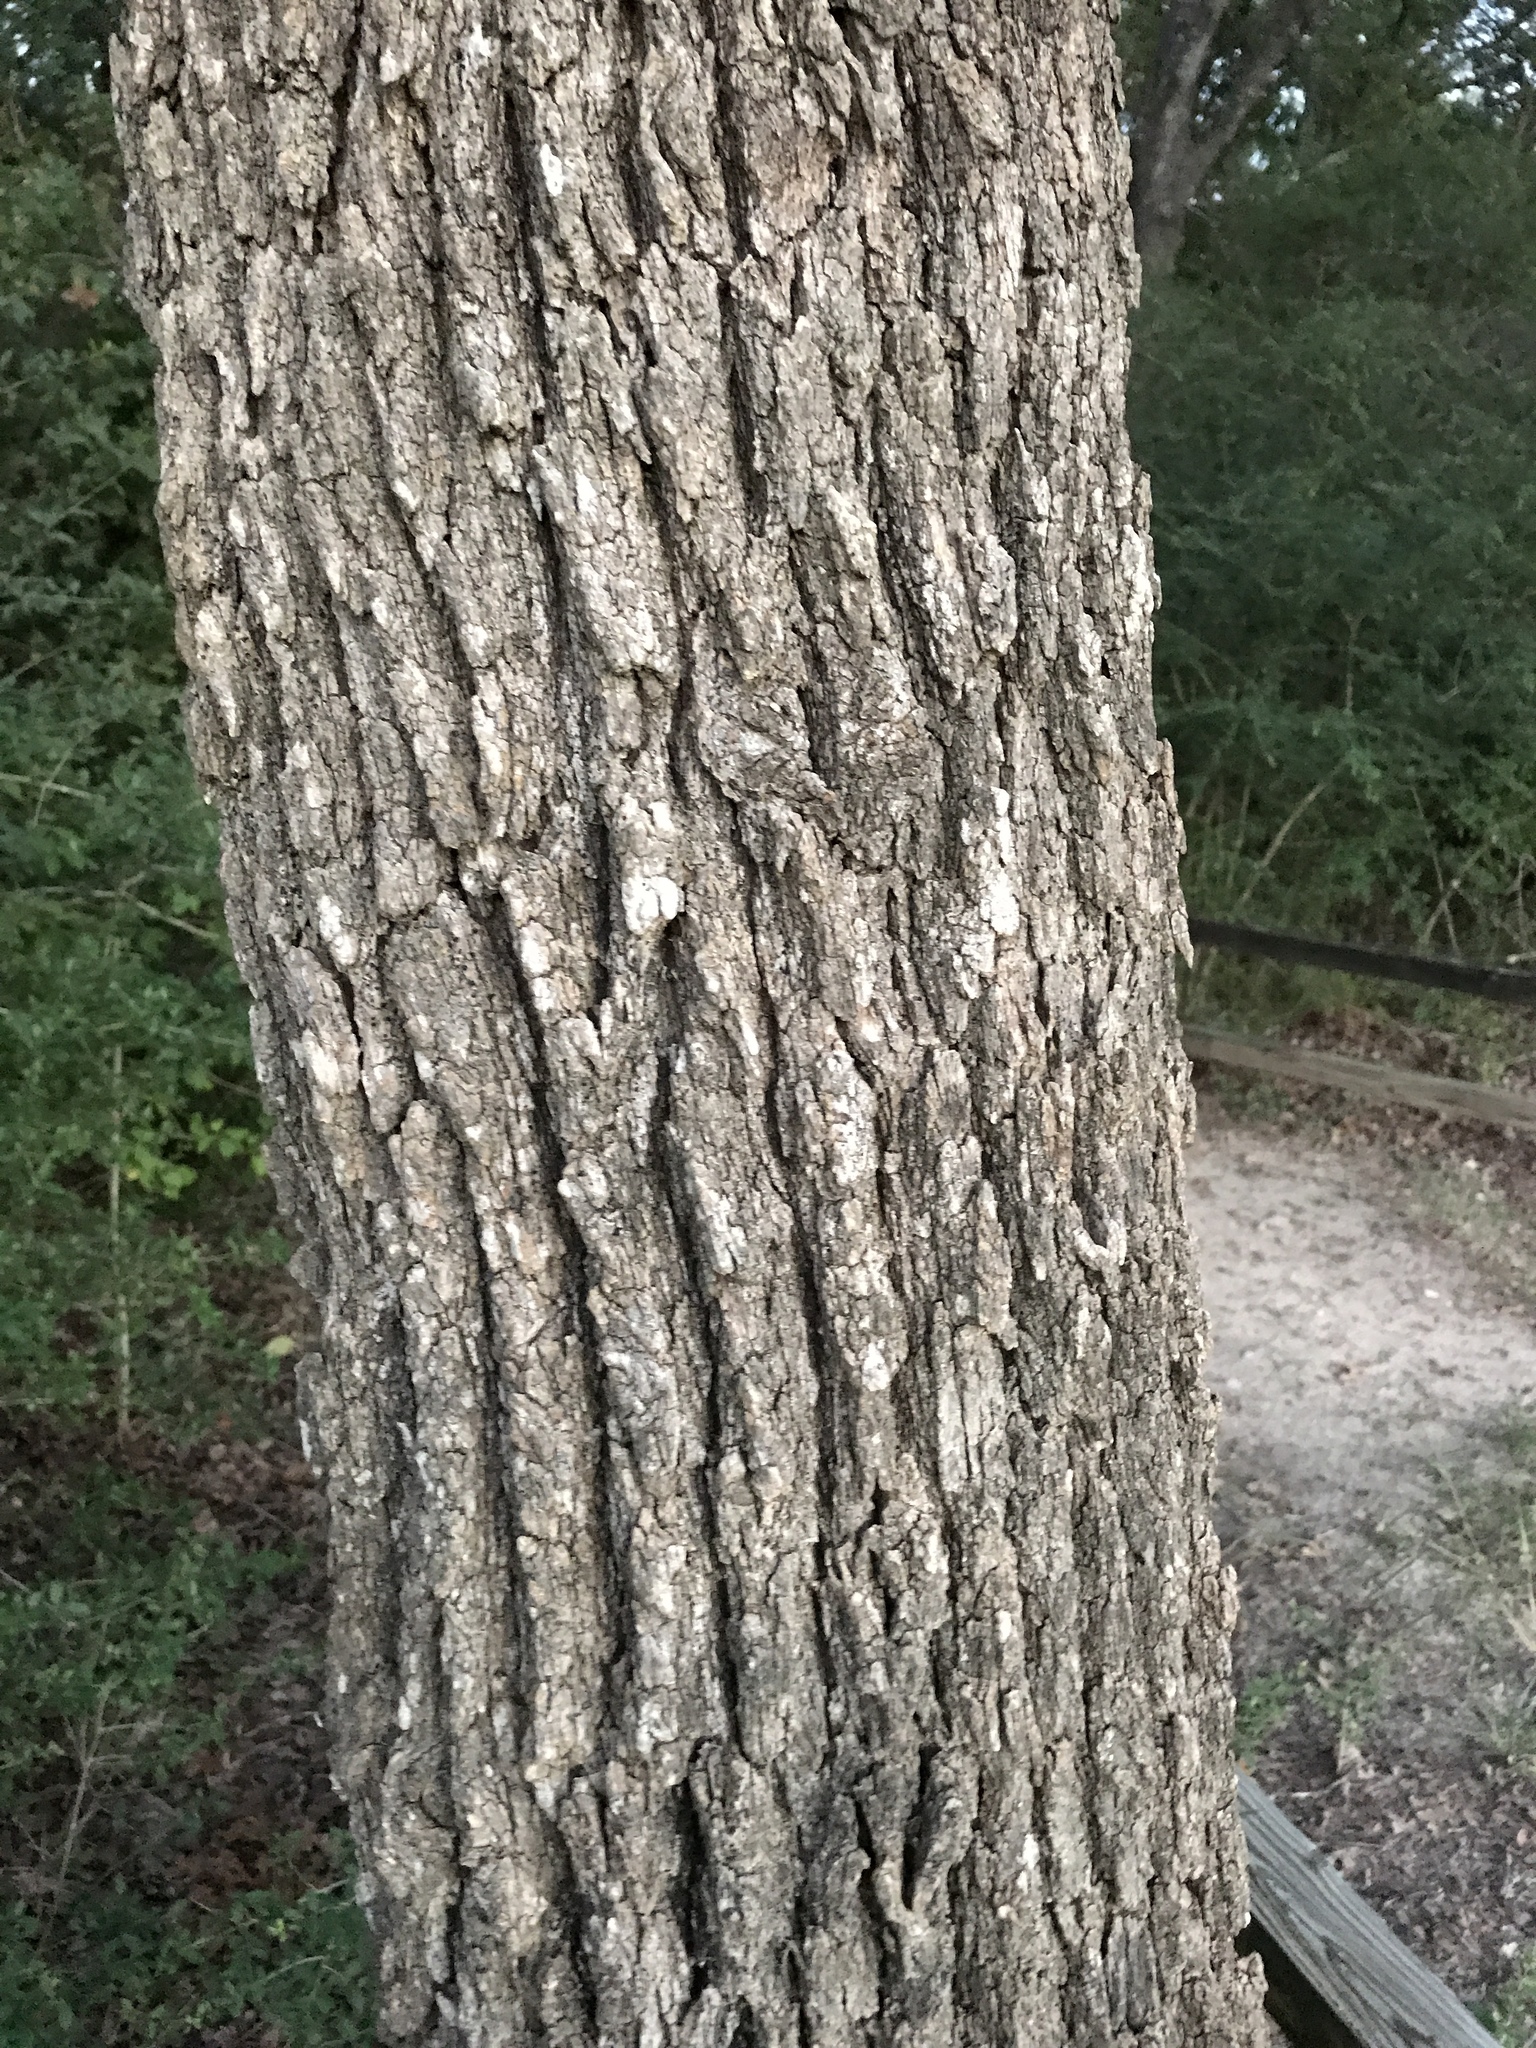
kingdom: Plantae
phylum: Tracheophyta
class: Magnoliopsida
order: Fagales
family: Fagaceae
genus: Quercus
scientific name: Quercus stellata
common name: Post oak
